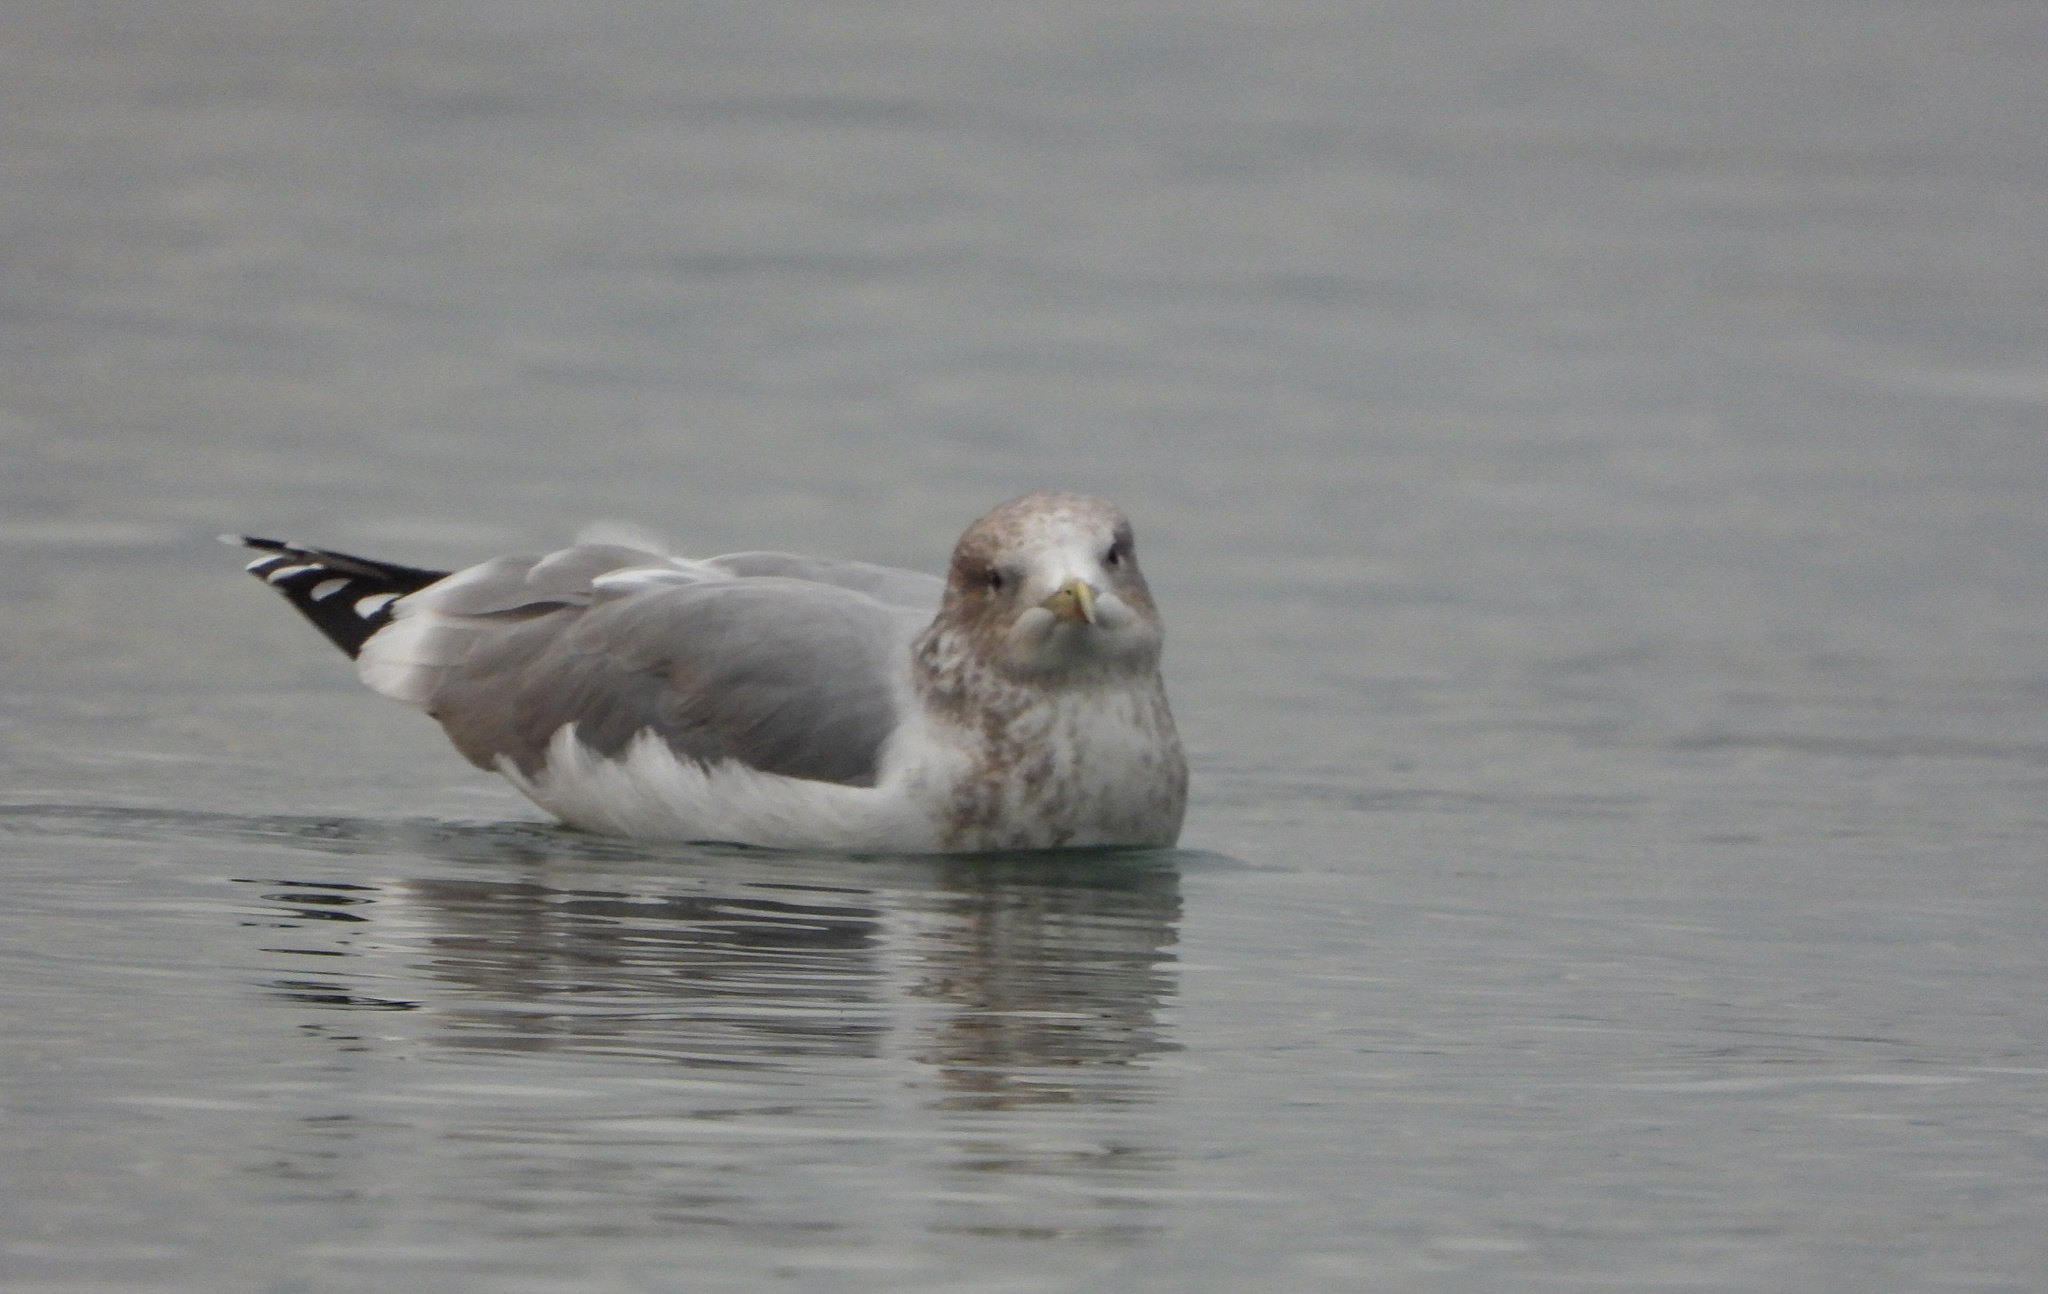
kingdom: Animalia
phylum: Chordata
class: Aves
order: Charadriiformes
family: Laridae
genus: Larus
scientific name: Larus californicus
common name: California gull
